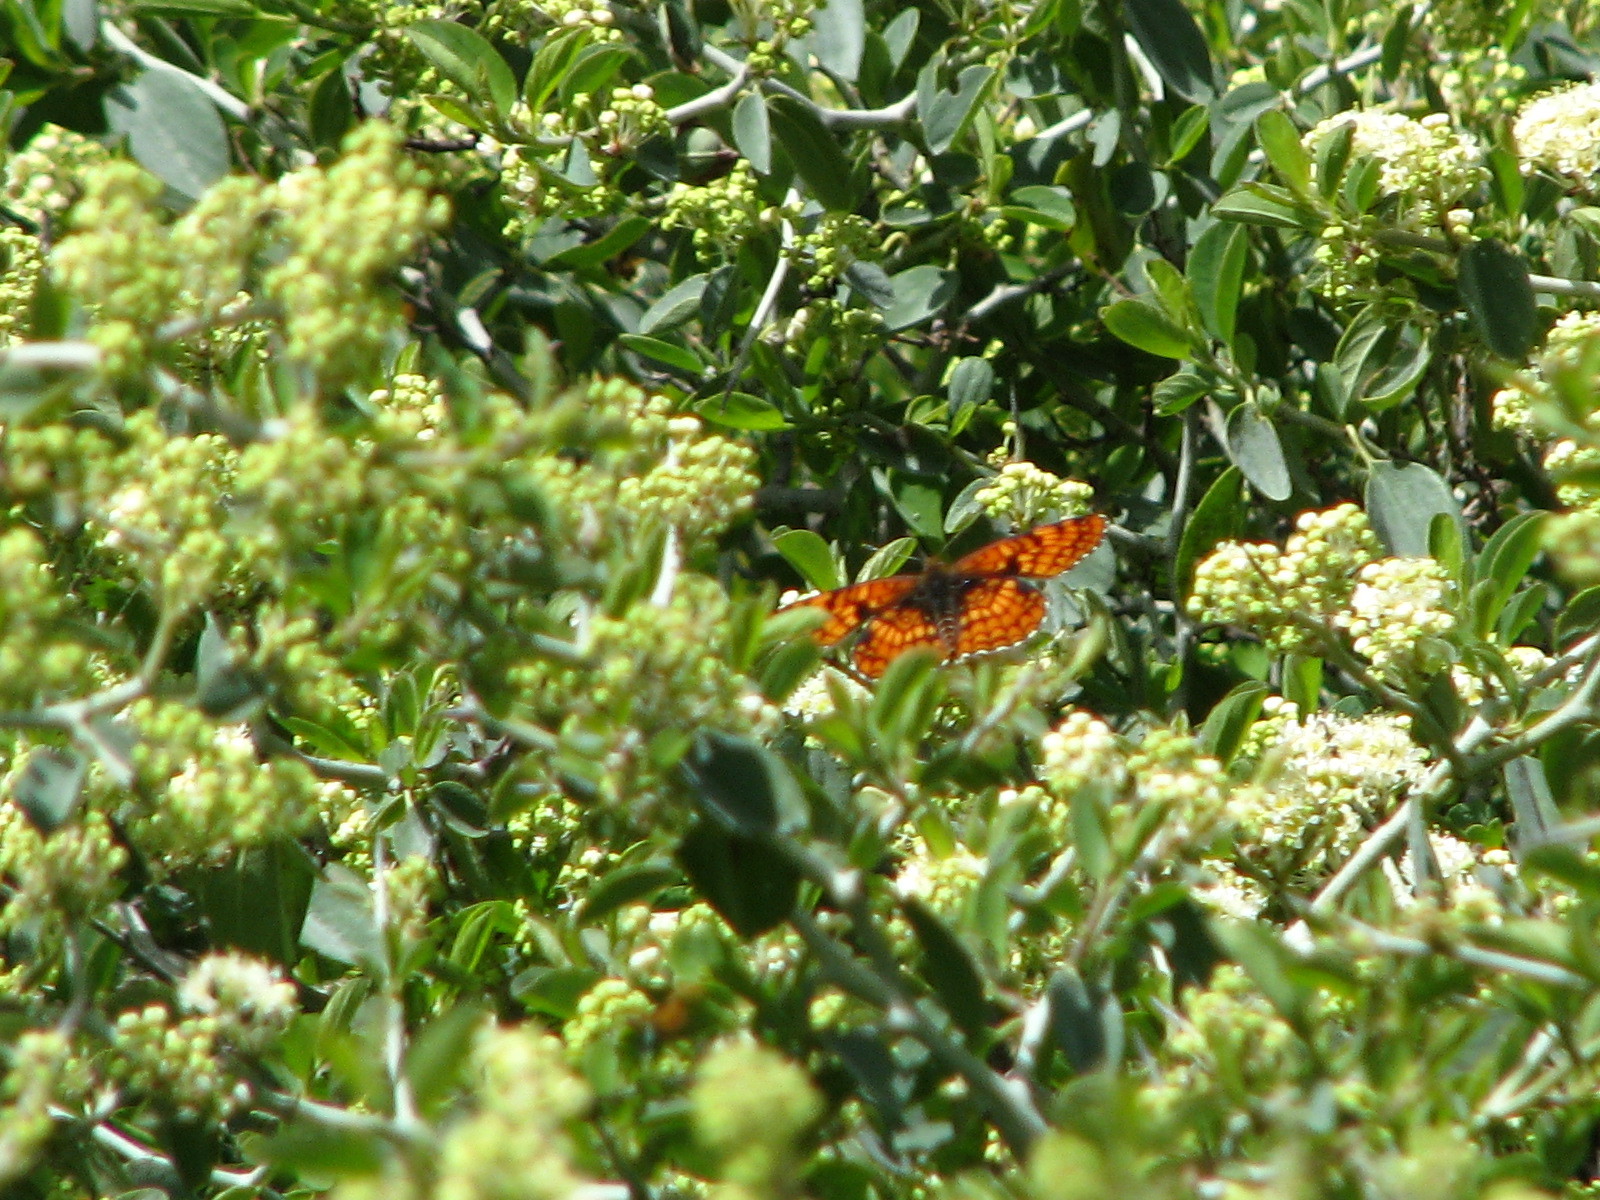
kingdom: Animalia
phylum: Arthropoda
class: Insecta
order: Lepidoptera
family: Nymphalidae
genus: Chlosyne
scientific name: Chlosyne palla
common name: Northern checkerspot
